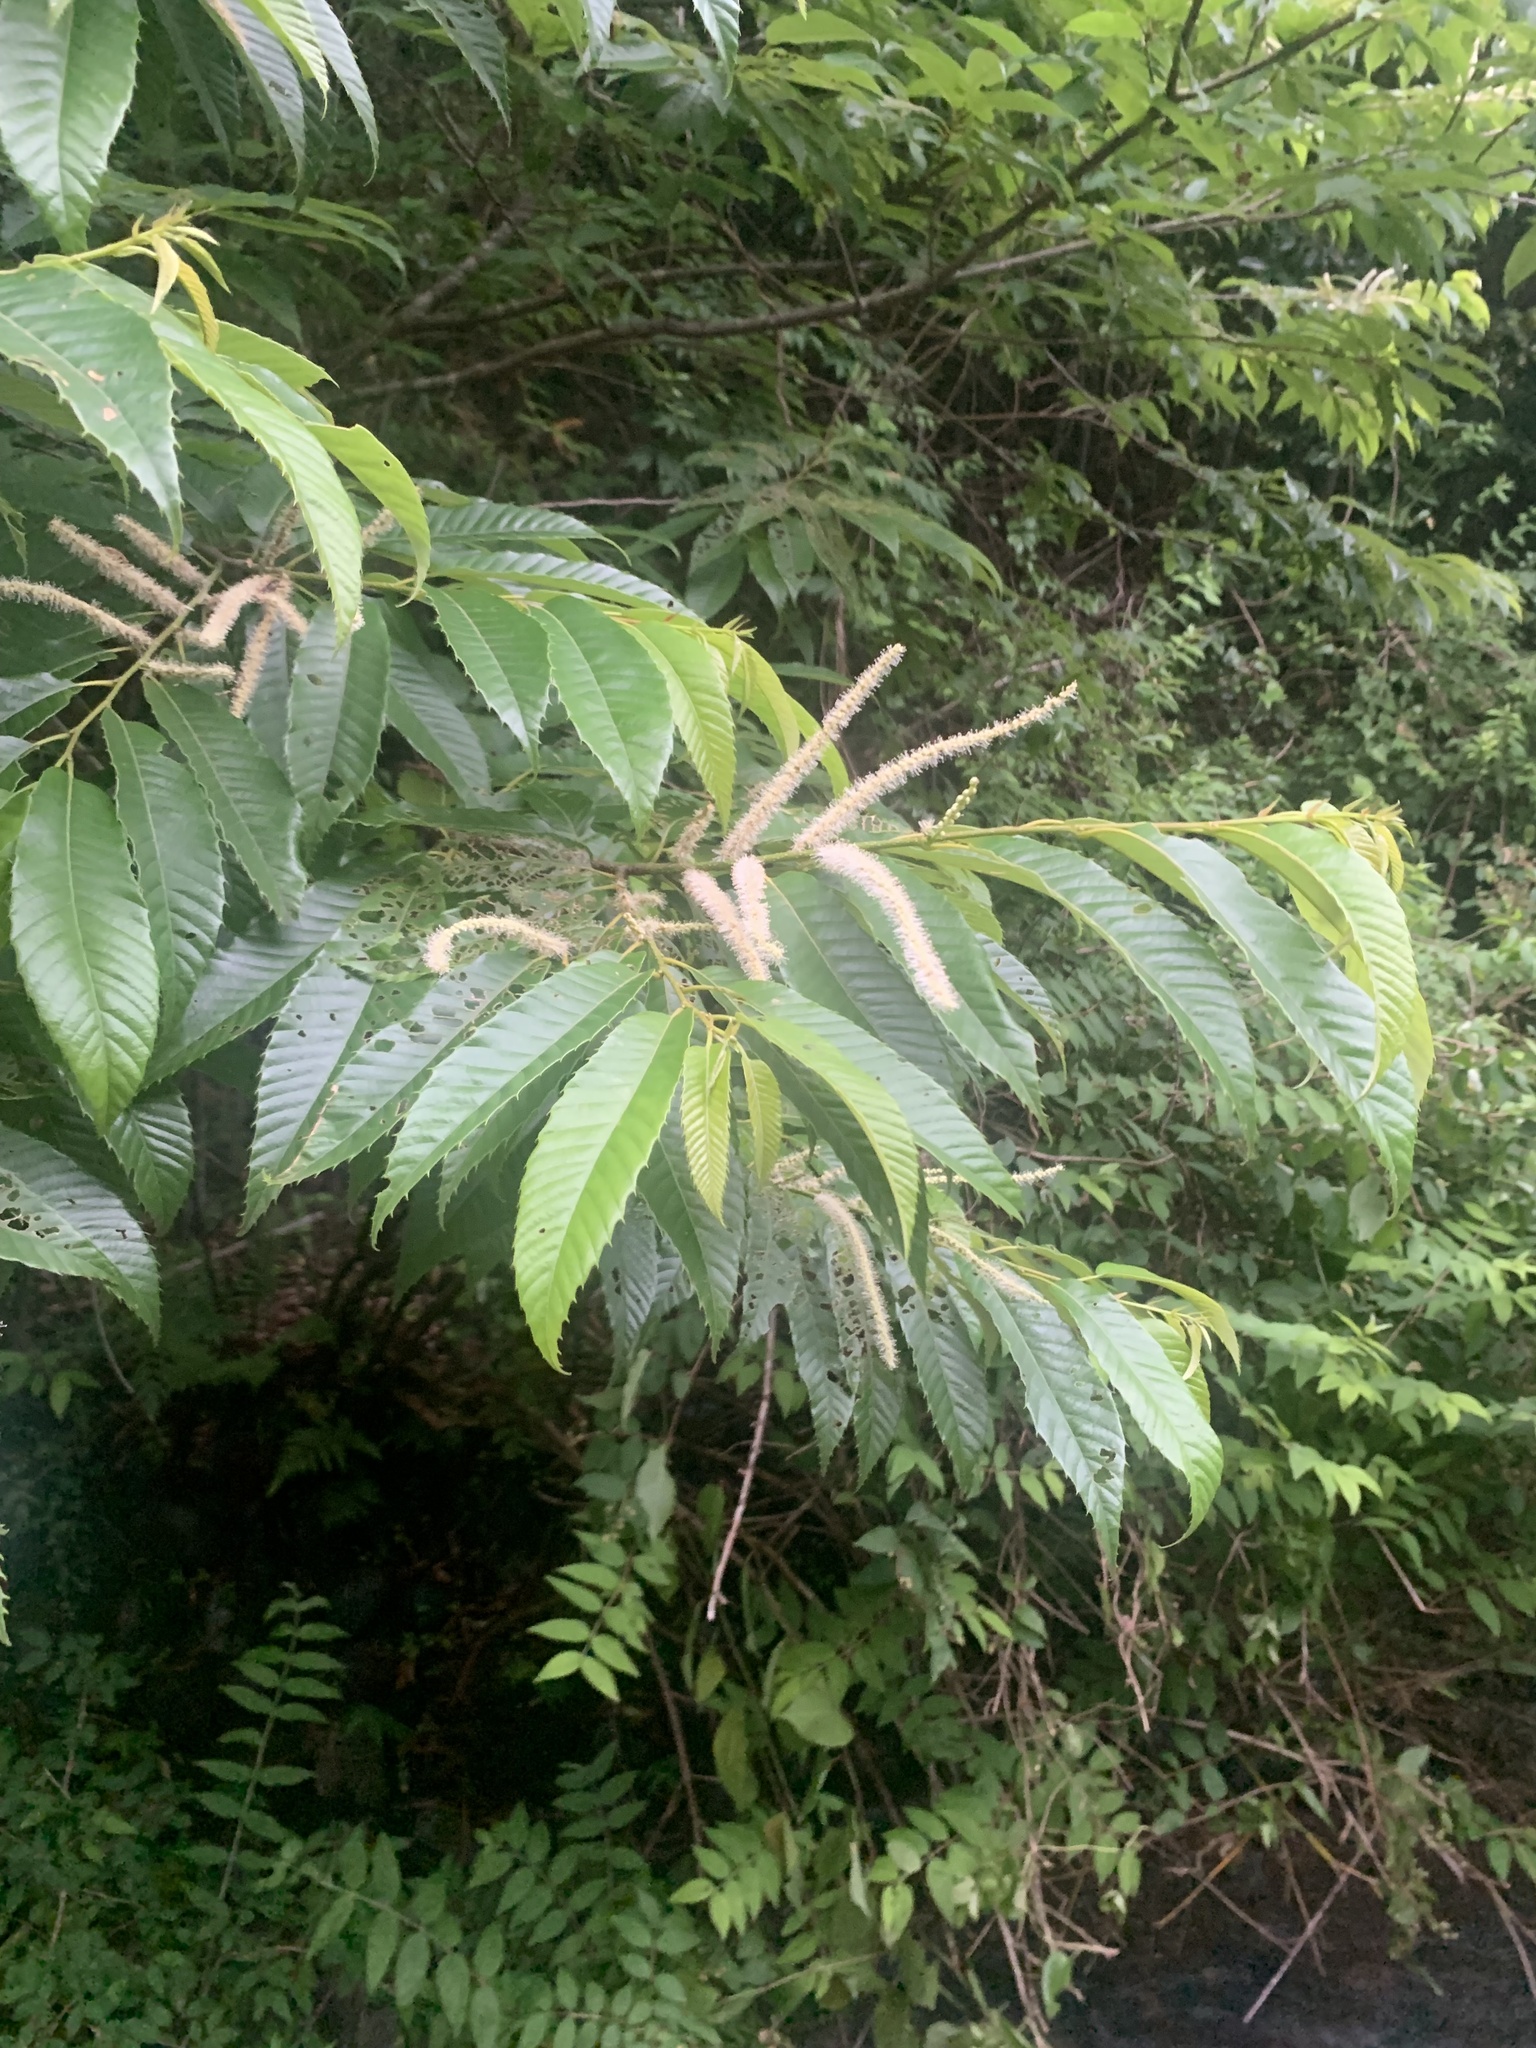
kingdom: Plantae
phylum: Tracheophyta
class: Magnoliopsida
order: Fagales
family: Fagaceae
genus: Castanea
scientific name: Castanea crenata
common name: Japanese chestnut
